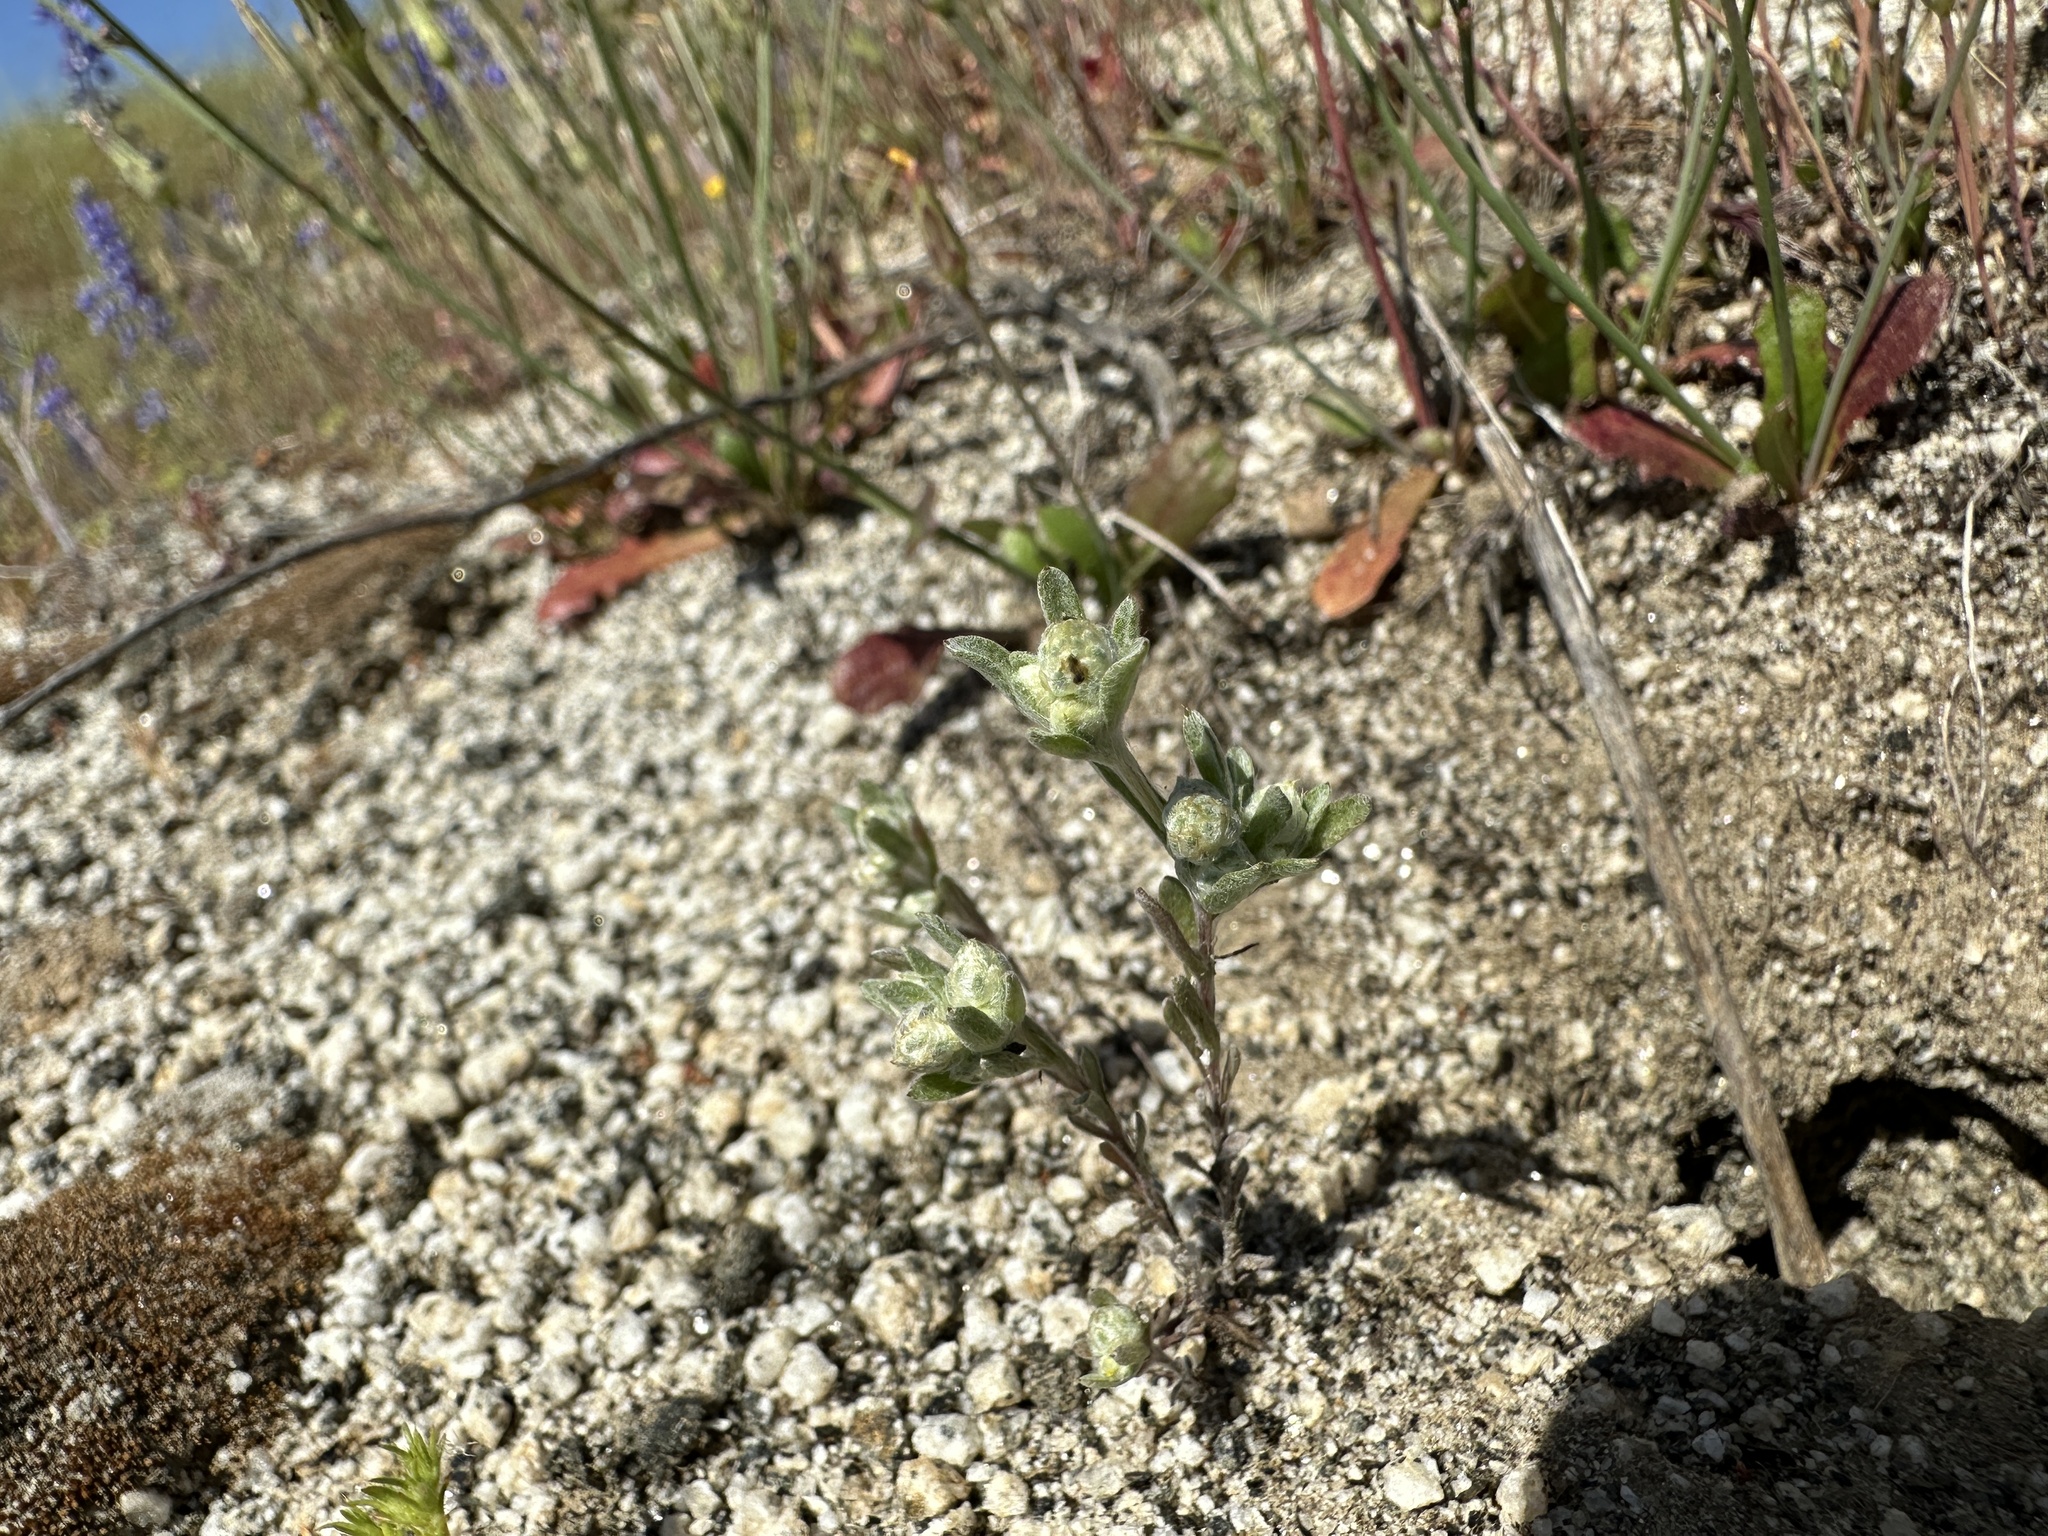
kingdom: Plantae
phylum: Tracheophyta
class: Magnoliopsida
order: Asterales
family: Asteraceae
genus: Stylocline
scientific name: Stylocline gnaphaloides
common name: Everlasting nest-straw
